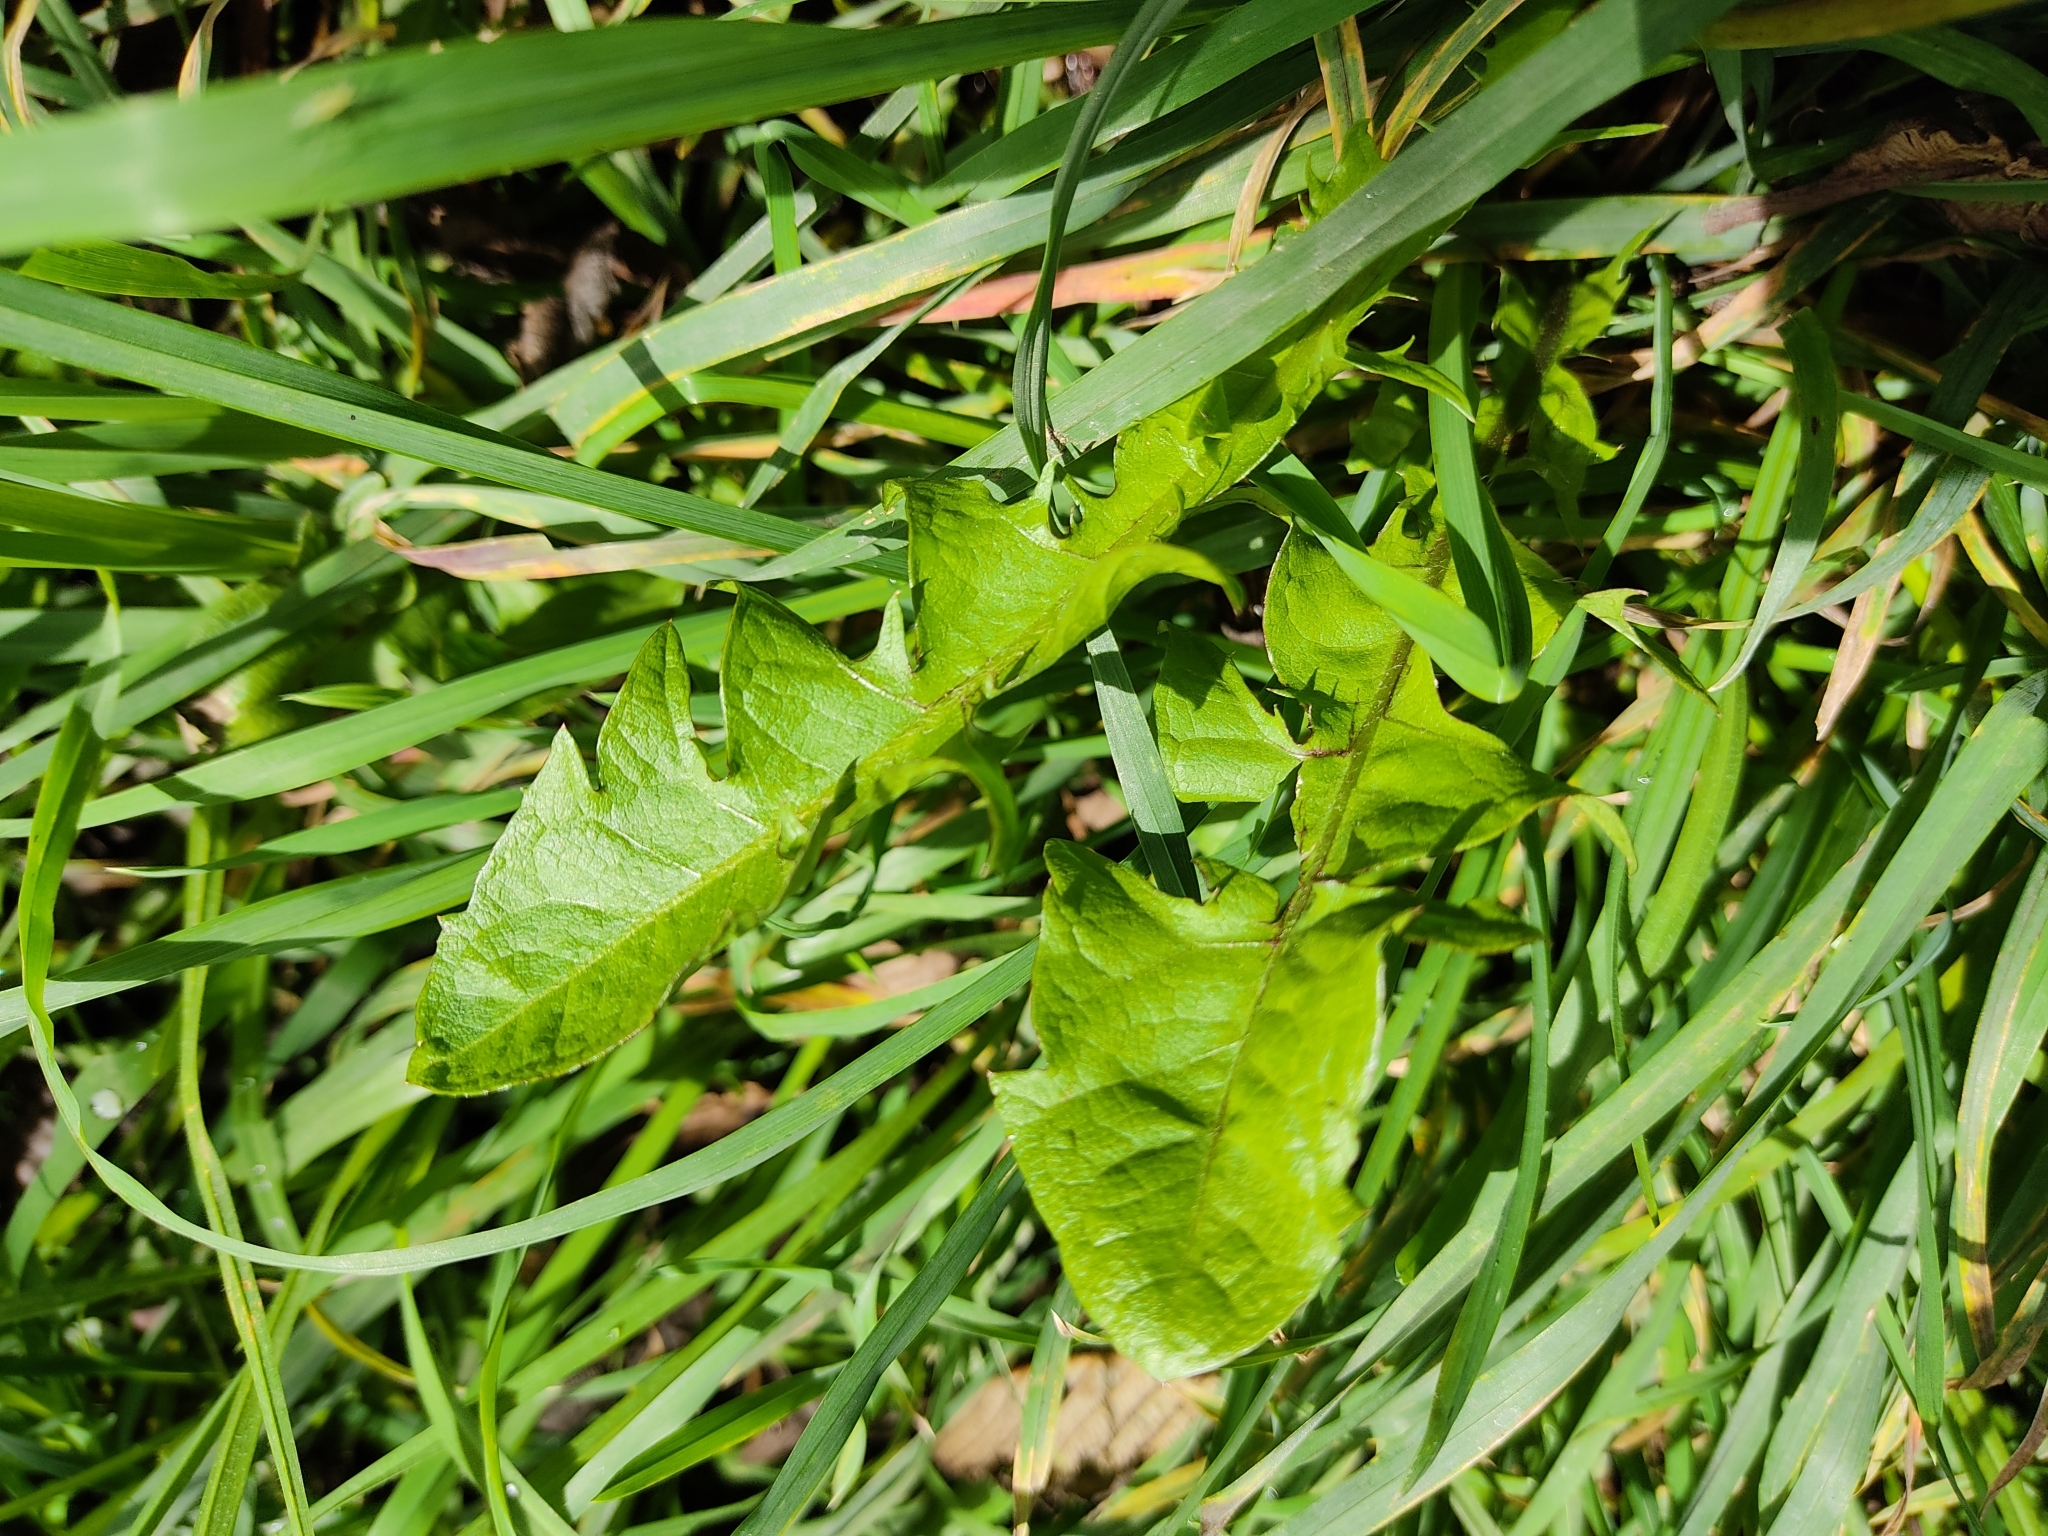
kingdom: Plantae
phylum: Tracheophyta
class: Magnoliopsida
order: Asterales
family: Asteraceae
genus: Taraxacum
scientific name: Taraxacum officinale
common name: Common dandelion
